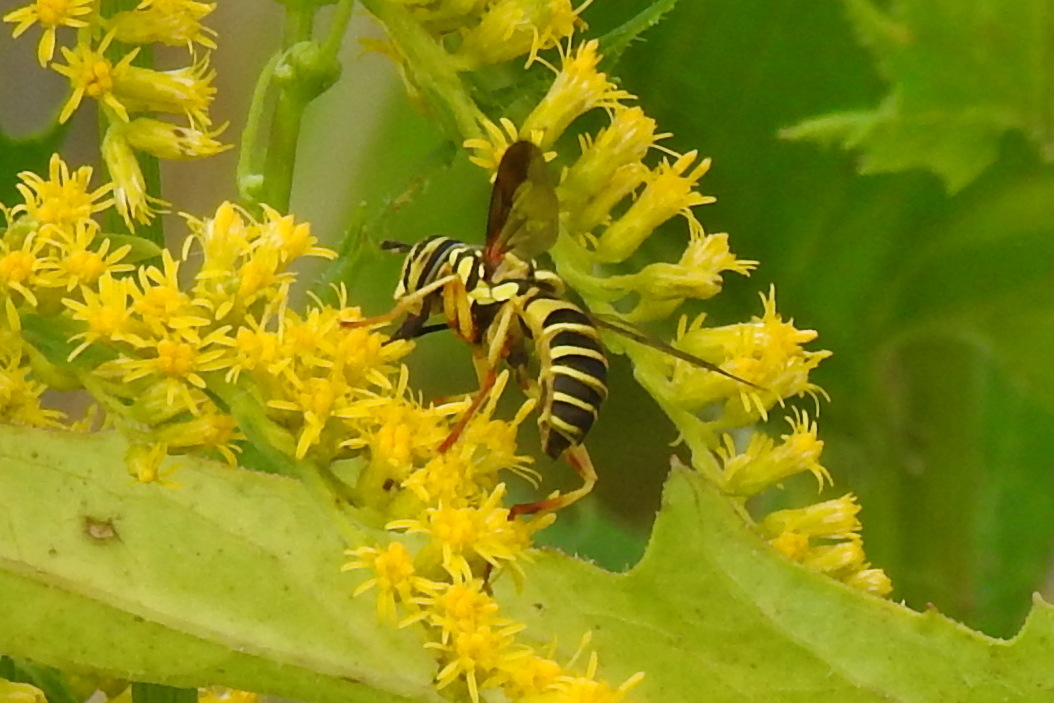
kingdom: Animalia
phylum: Arthropoda
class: Insecta
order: Diptera
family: Syrphidae
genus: Spilomyia
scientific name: Spilomyia longicornis
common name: Eastern hornet fly
